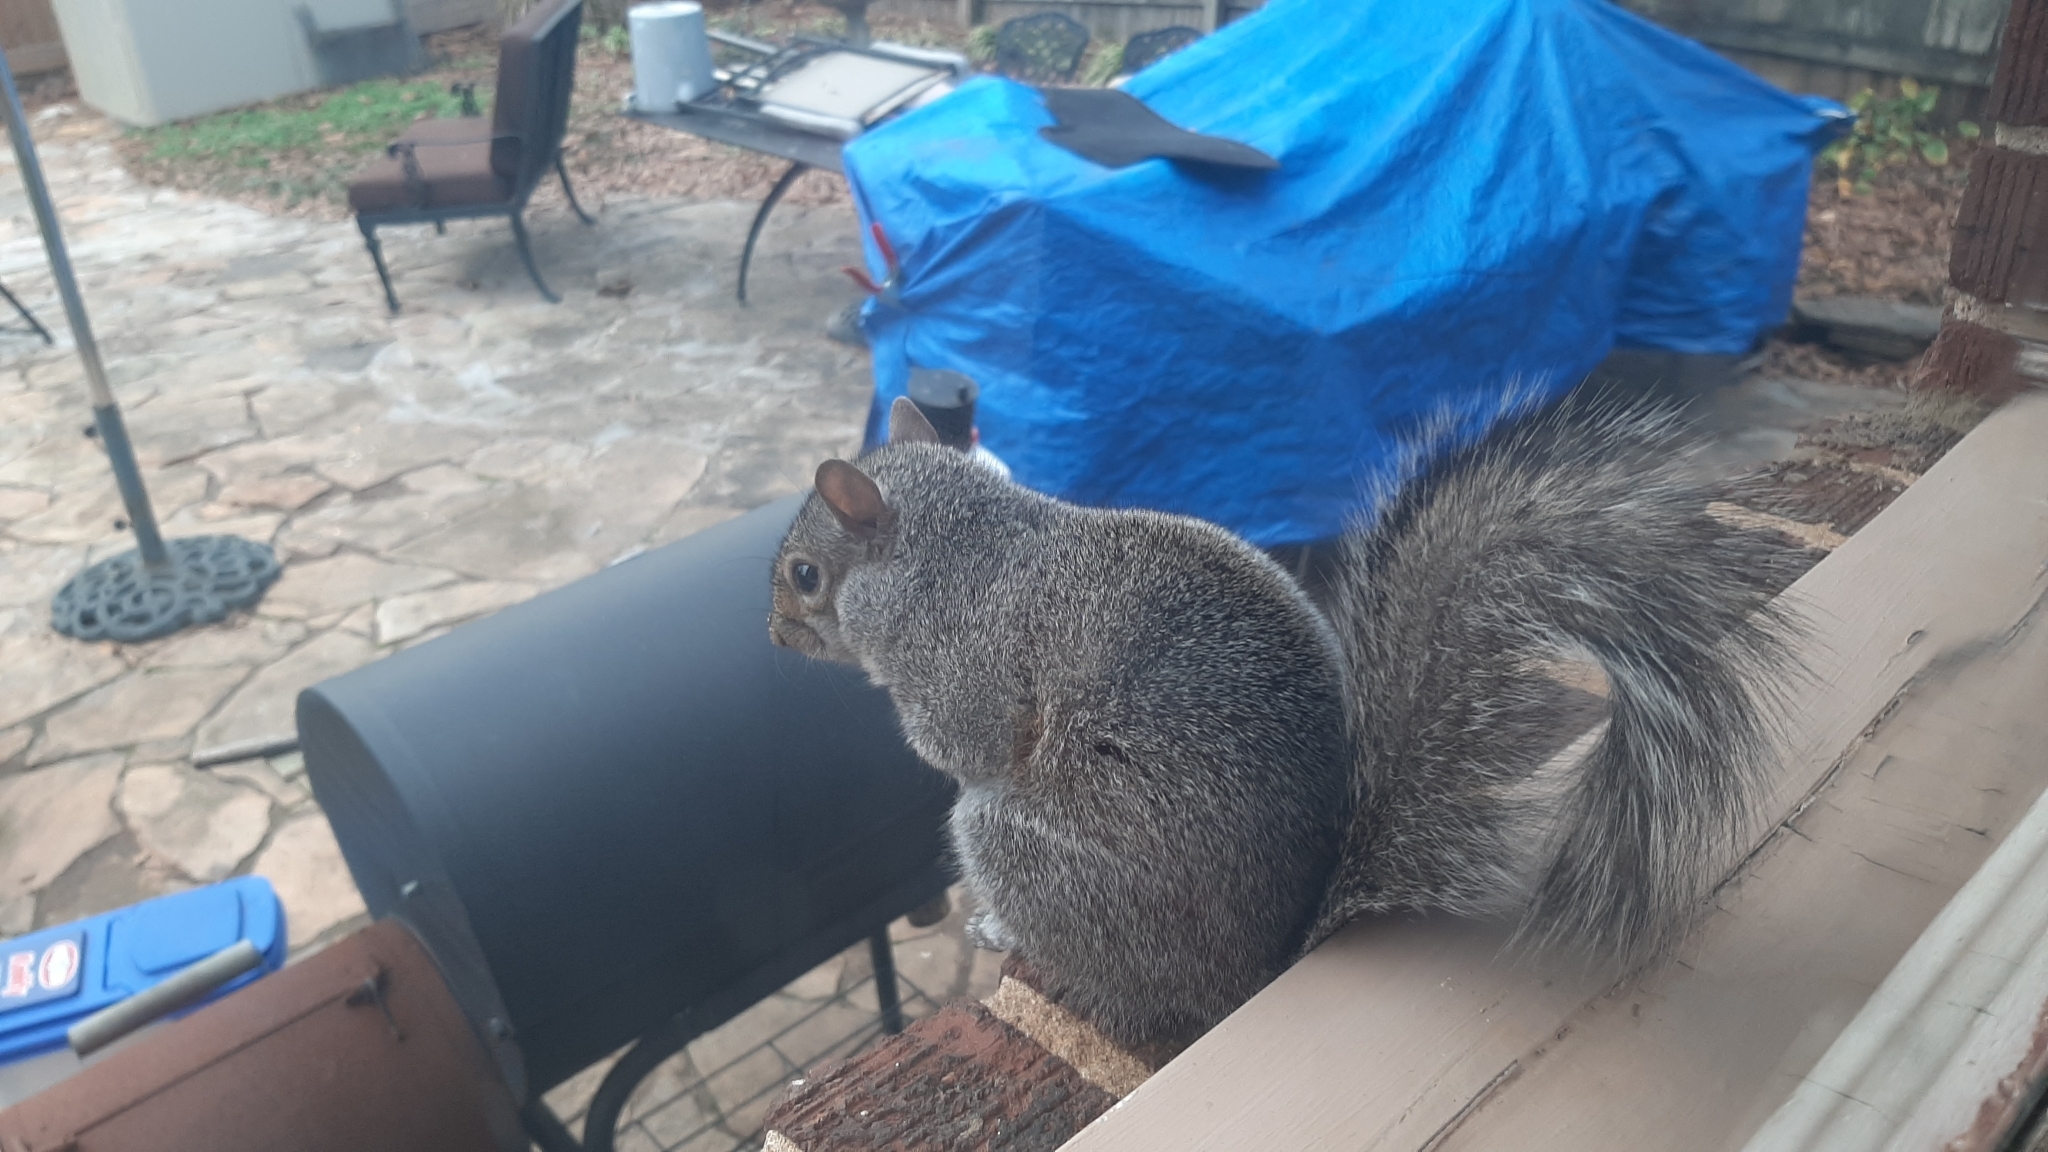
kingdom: Animalia
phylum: Chordata
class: Mammalia
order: Rodentia
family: Sciuridae
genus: Sciurus
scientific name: Sciurus carolinensis
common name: Eastern gray squirrel
